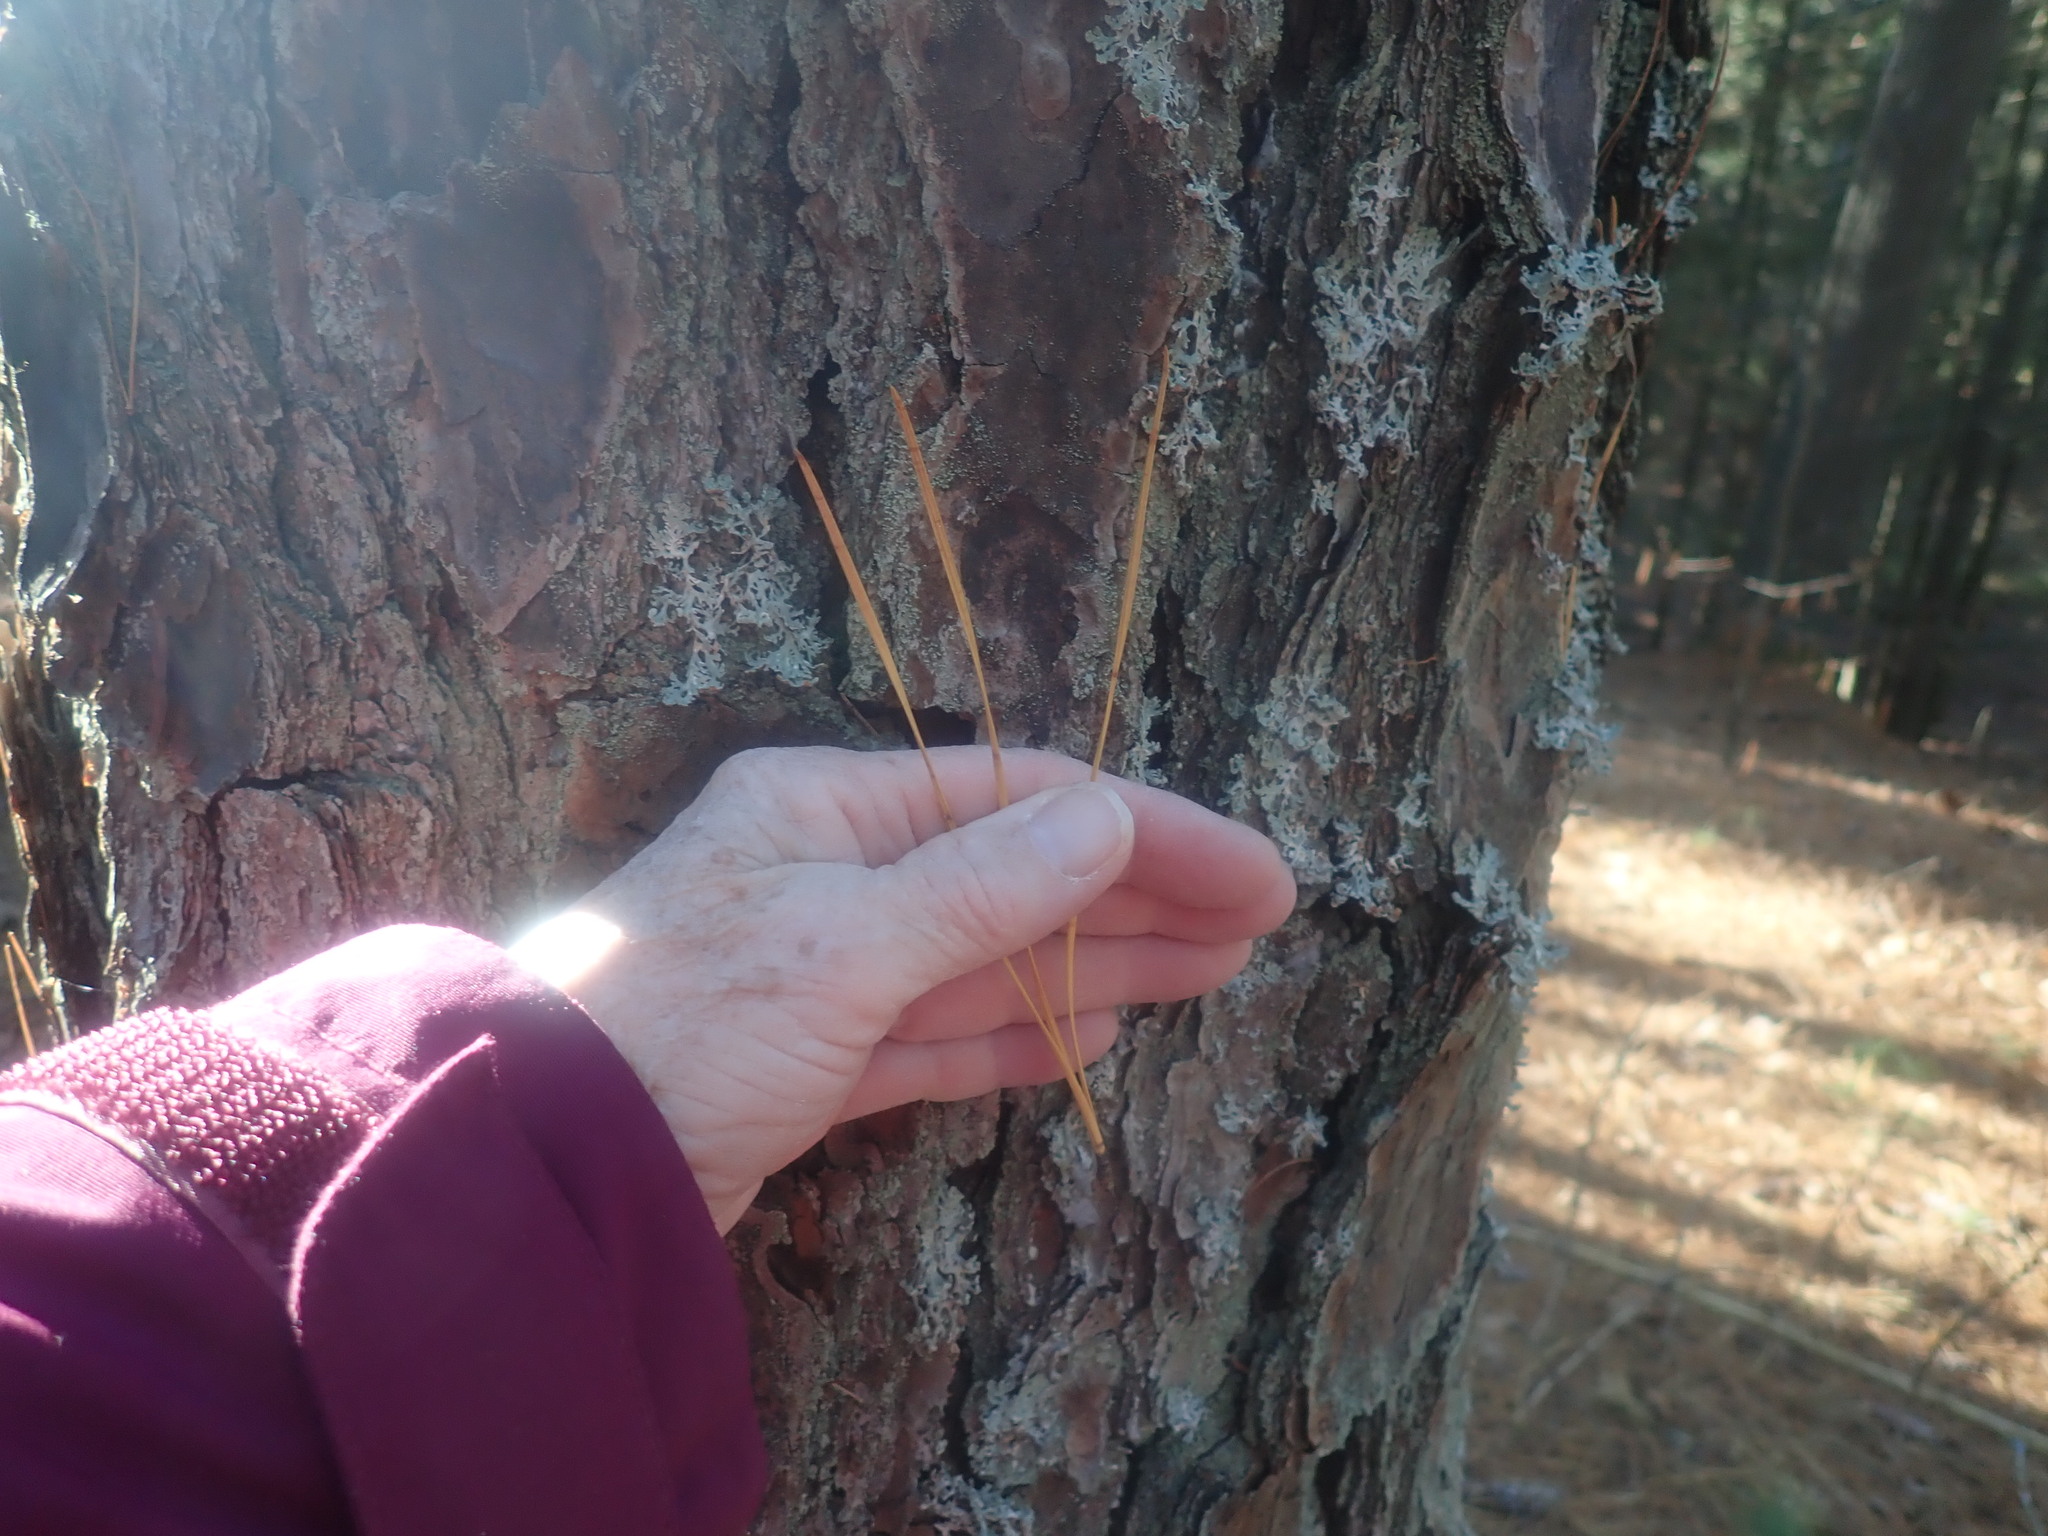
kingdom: Plantae
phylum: Tracheophyta
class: Pinopsida
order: Pinales
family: Pinaceae
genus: Pinus
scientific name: Pinus rigida
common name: Pitch pine
